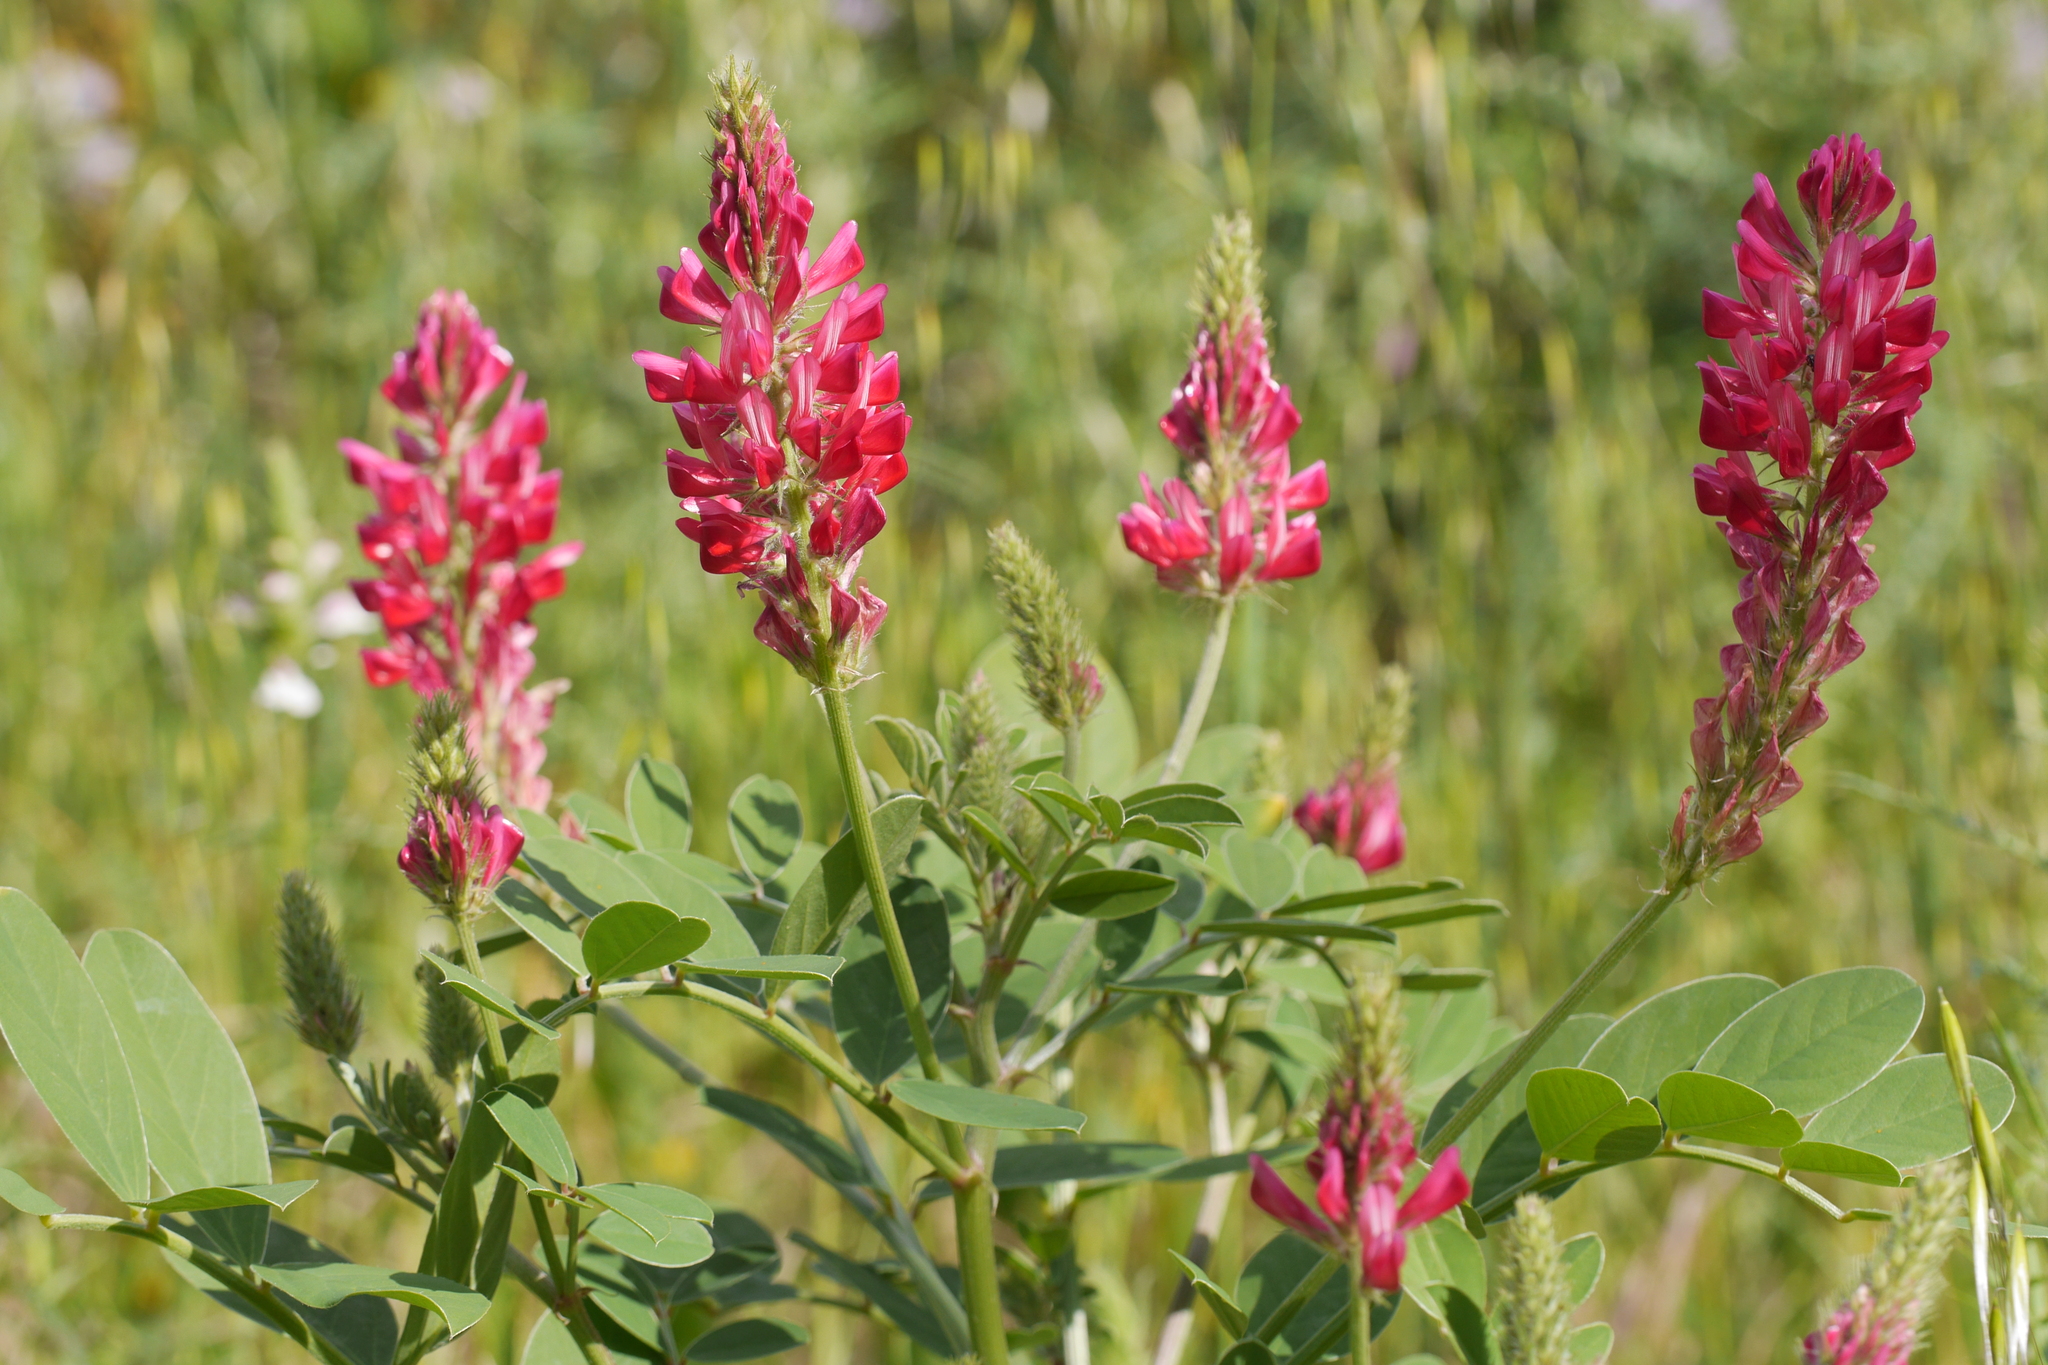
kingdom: Plantae
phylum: Tracheophyta
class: Magnoliopsida
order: Fabales
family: Fabaceae
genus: Sulla
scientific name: Sulla coronaria
